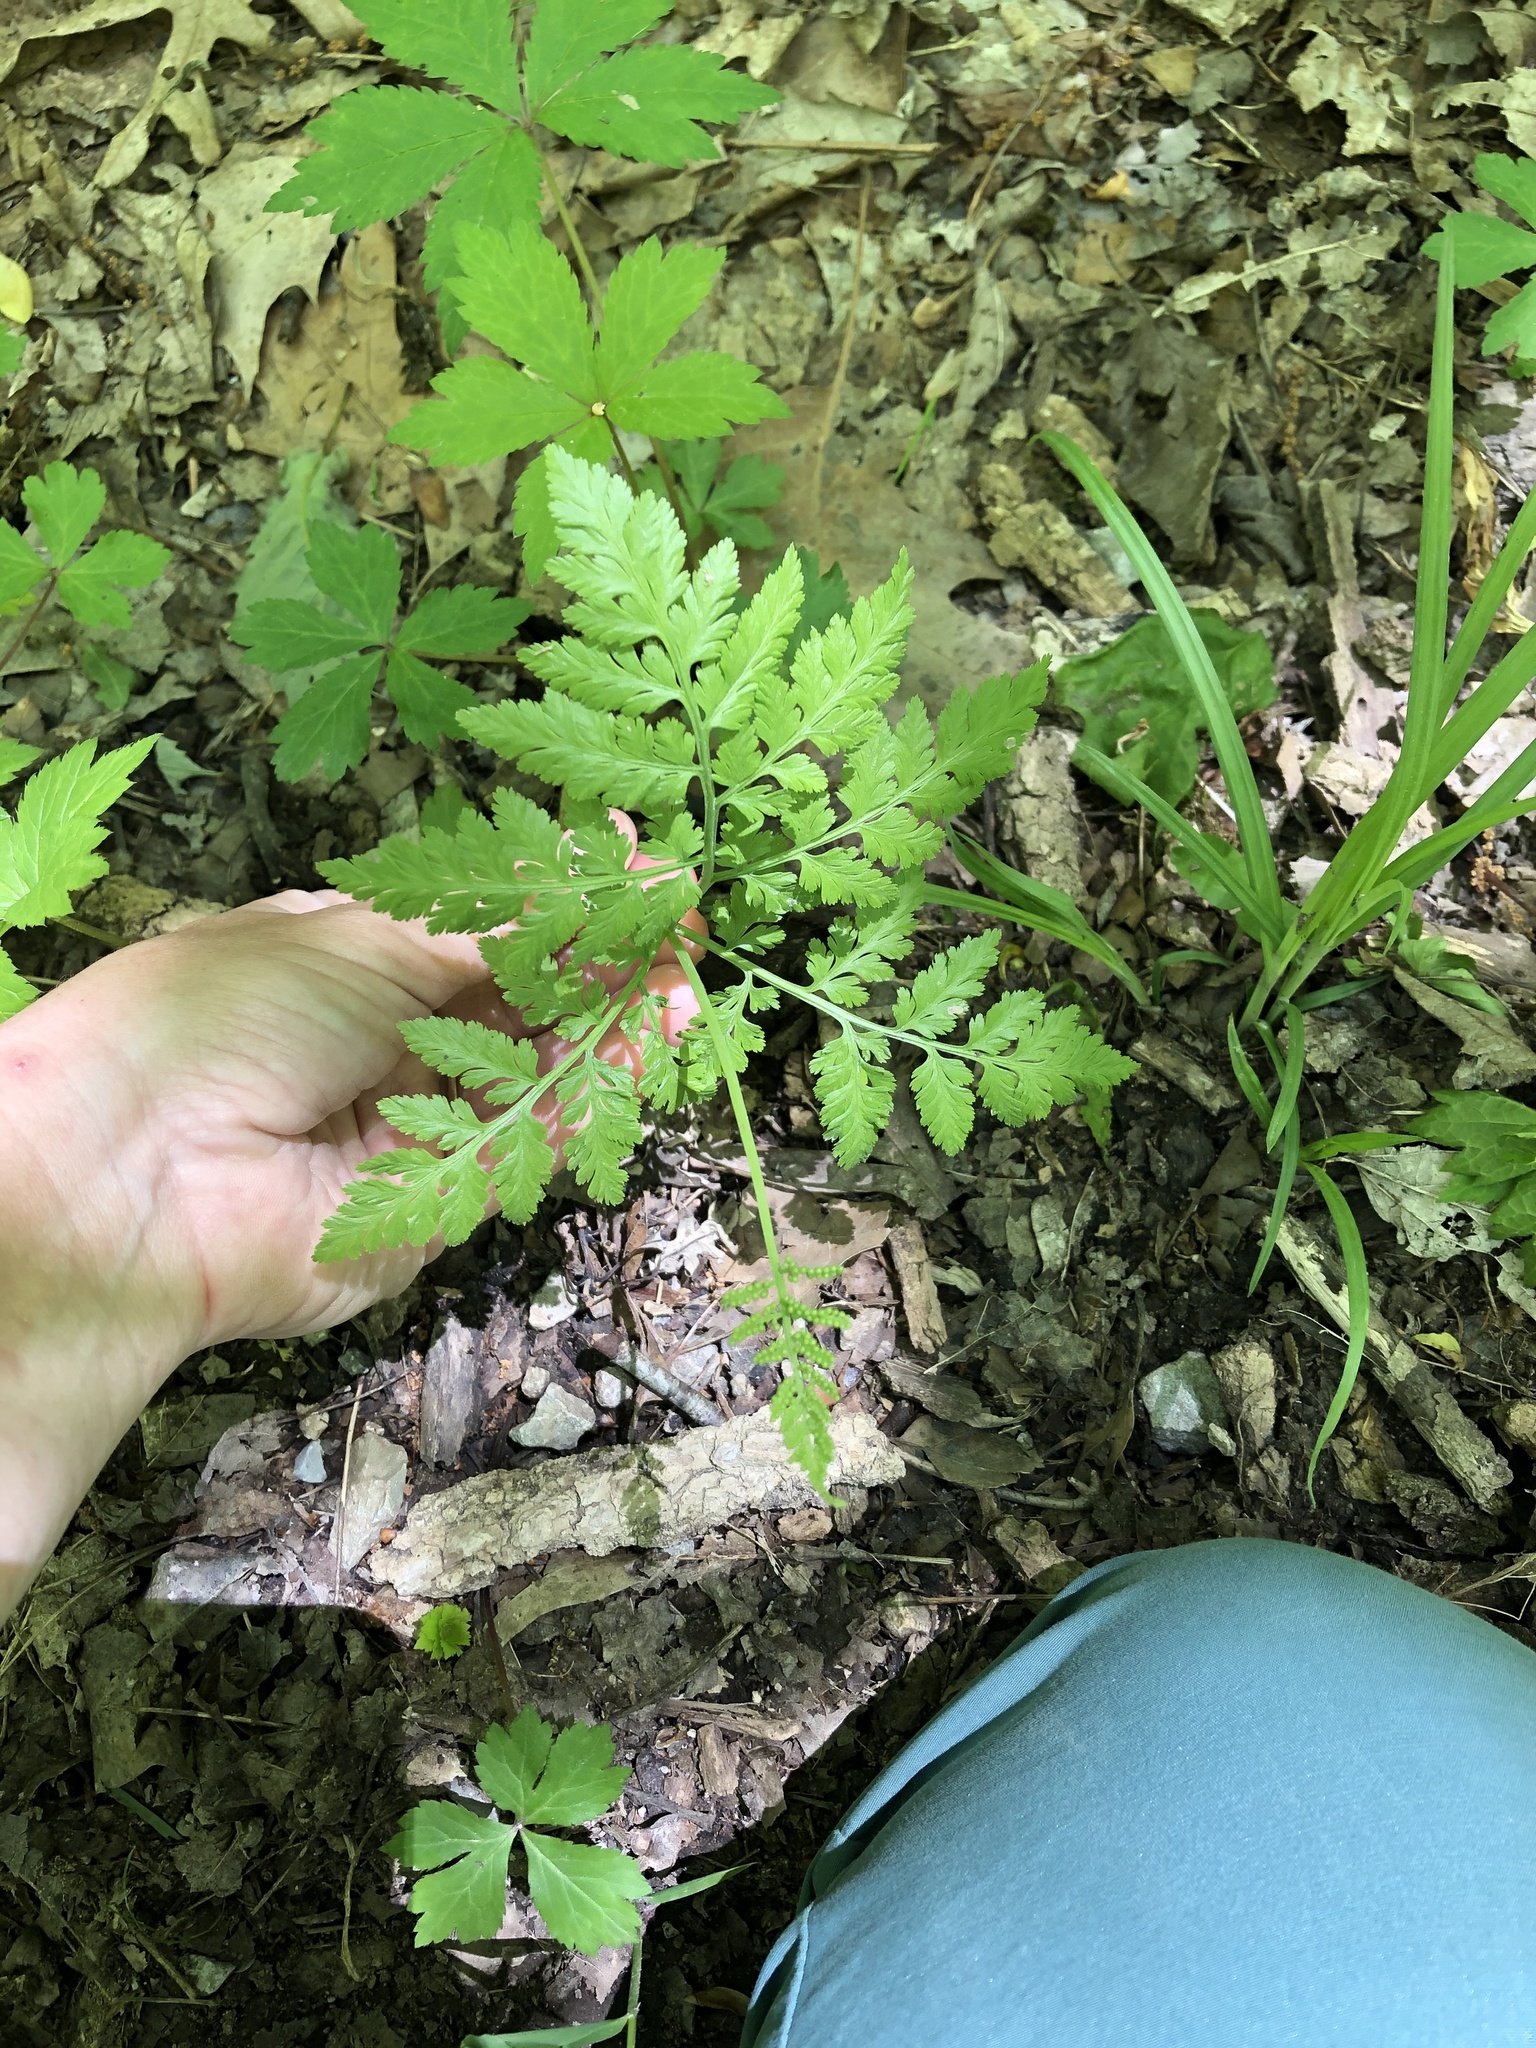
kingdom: Plantae
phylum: Tracheophyta
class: Polypodiopsida
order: Ophioglossales
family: Ophioglossaceae
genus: Sceptridium
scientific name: Sceptridium dissectum
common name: Cut-leaved grapefern
